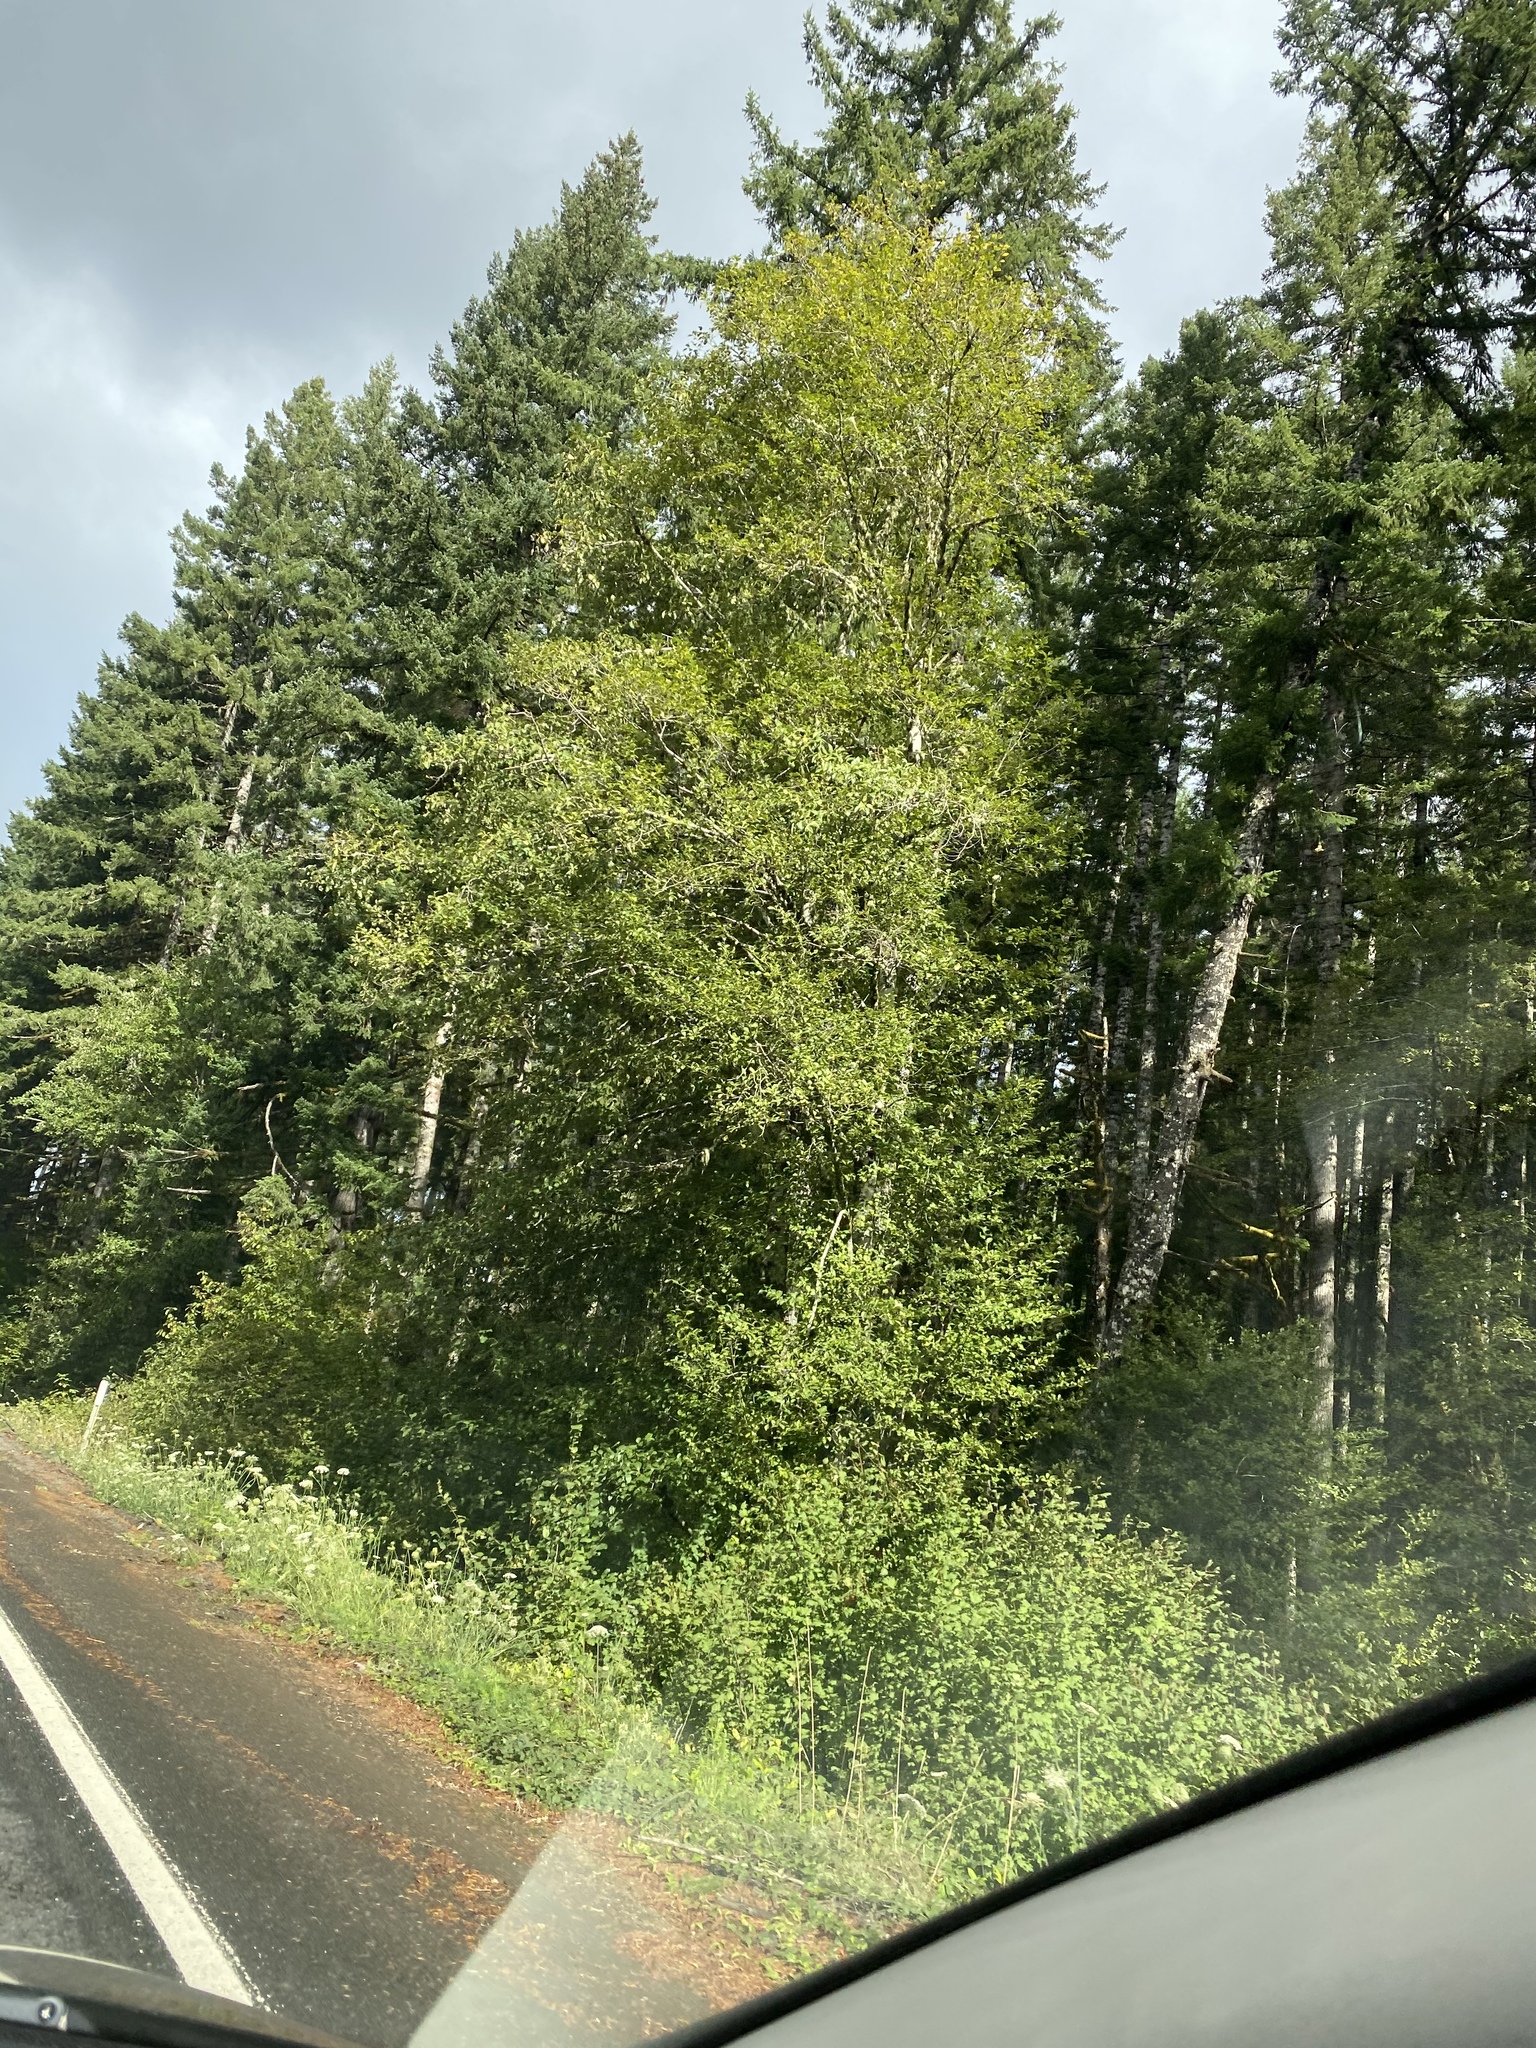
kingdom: Plantae
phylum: Tracheophyta
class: Magnoliopsida
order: Fagales
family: Betulaceae
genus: Alnus
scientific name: Alnus rubra
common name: Red alder
